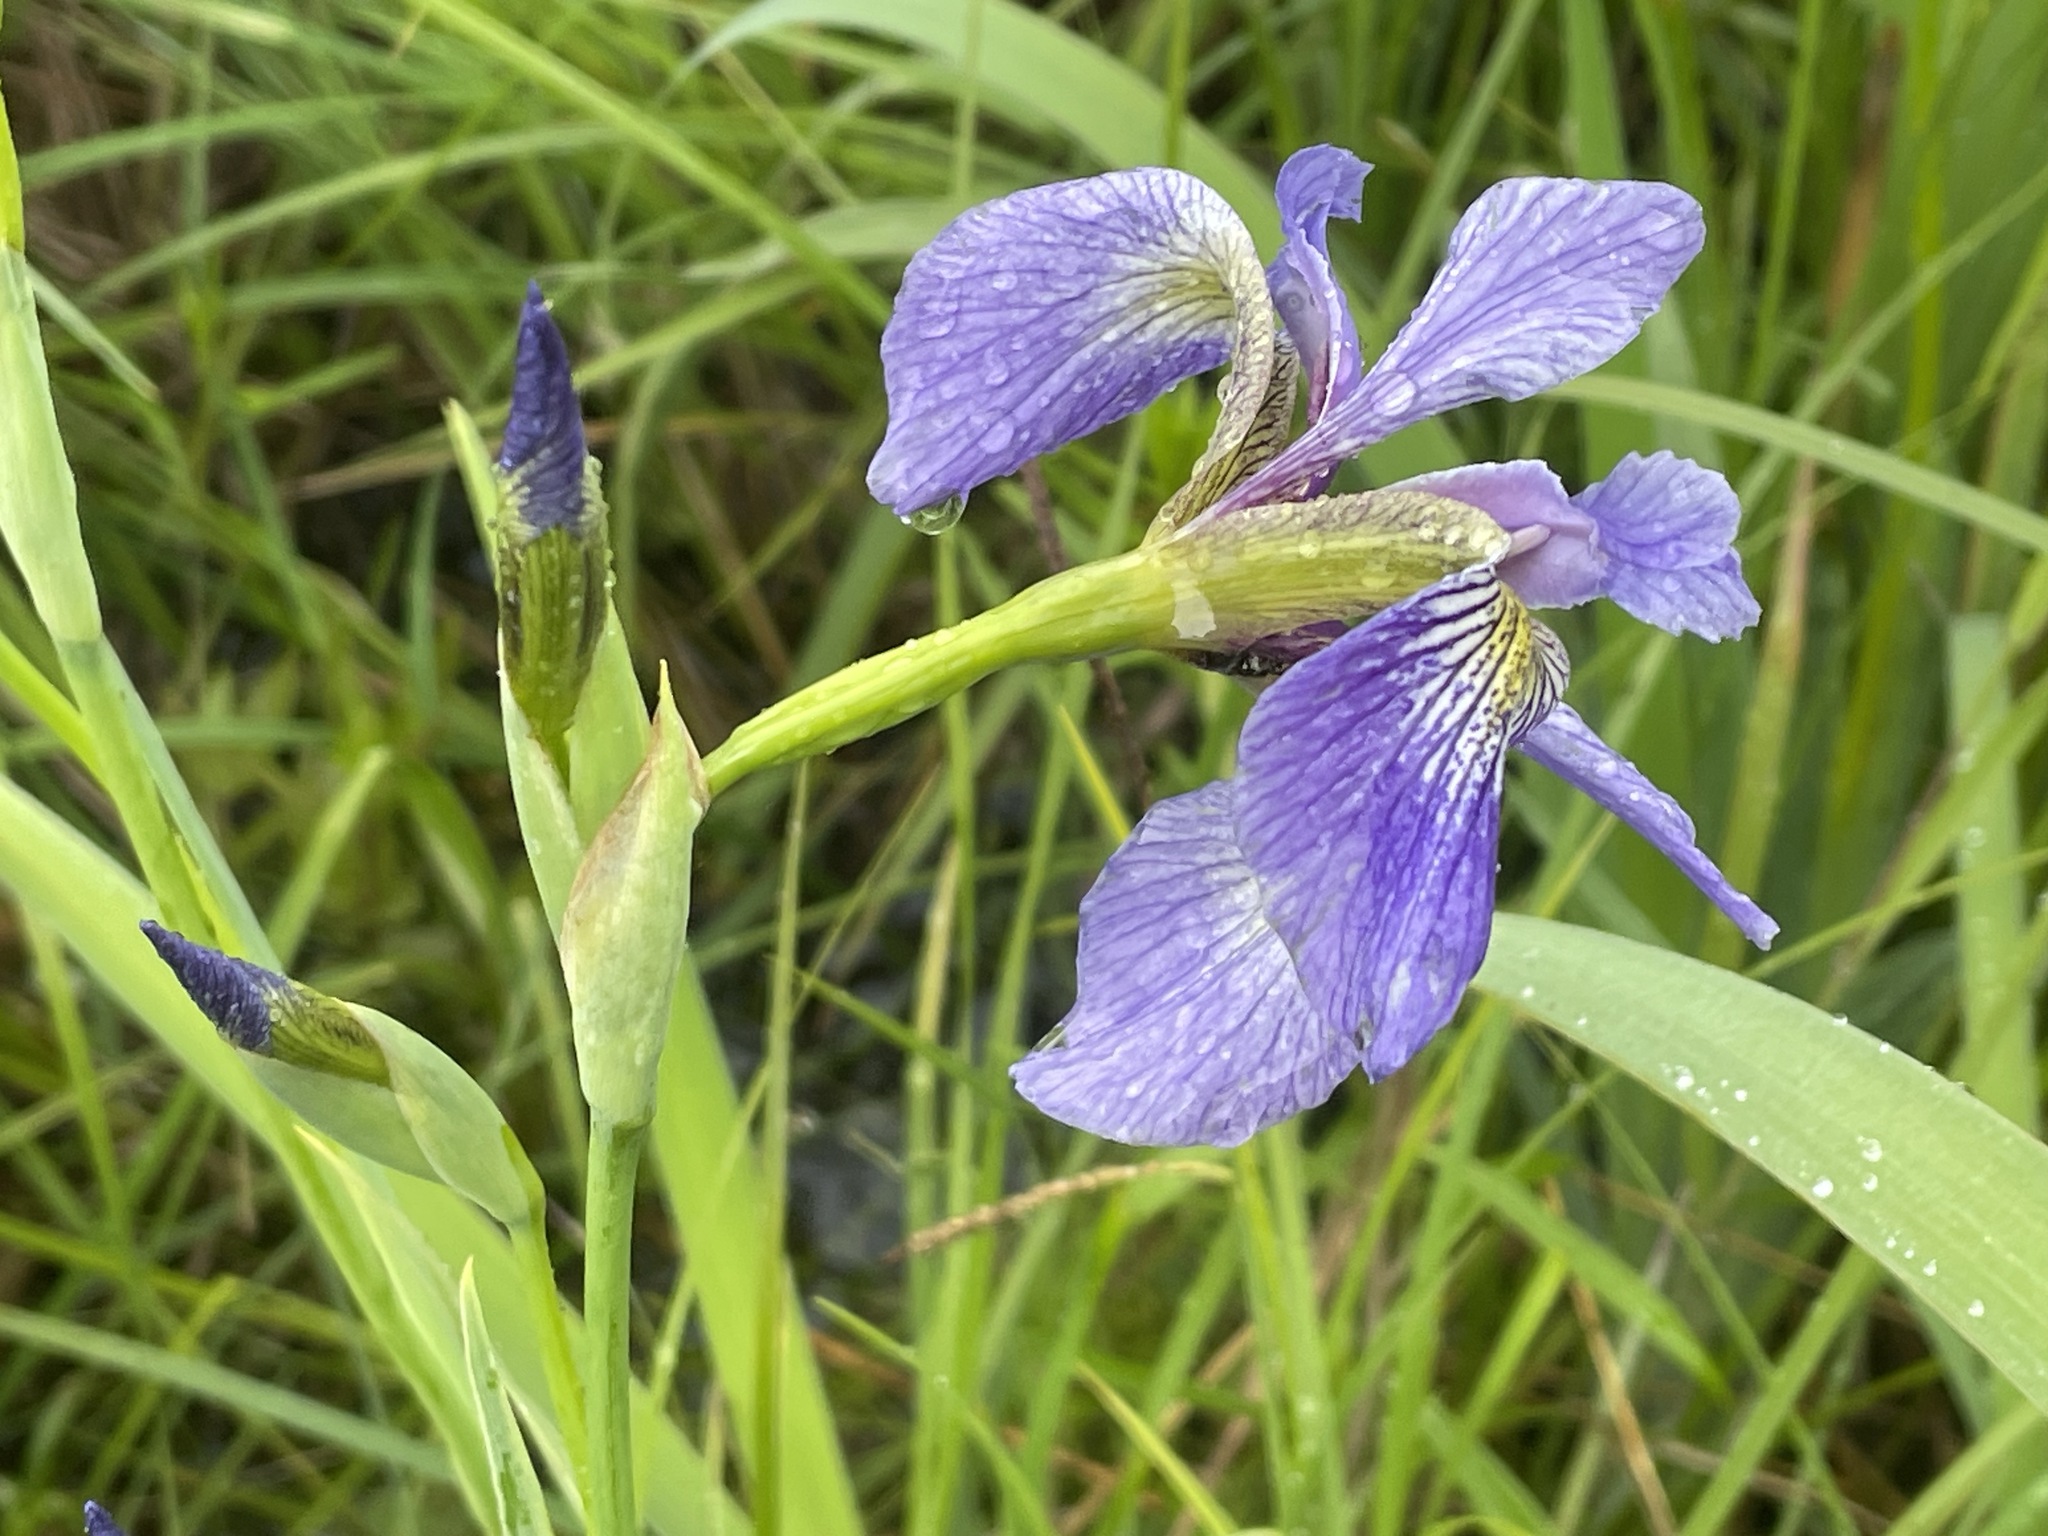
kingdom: Plantae
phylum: Tracheophyta
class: Liliopsida
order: Asparagales
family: Iridaceae
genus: Iris
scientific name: Iris versicolor
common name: Purple iris
